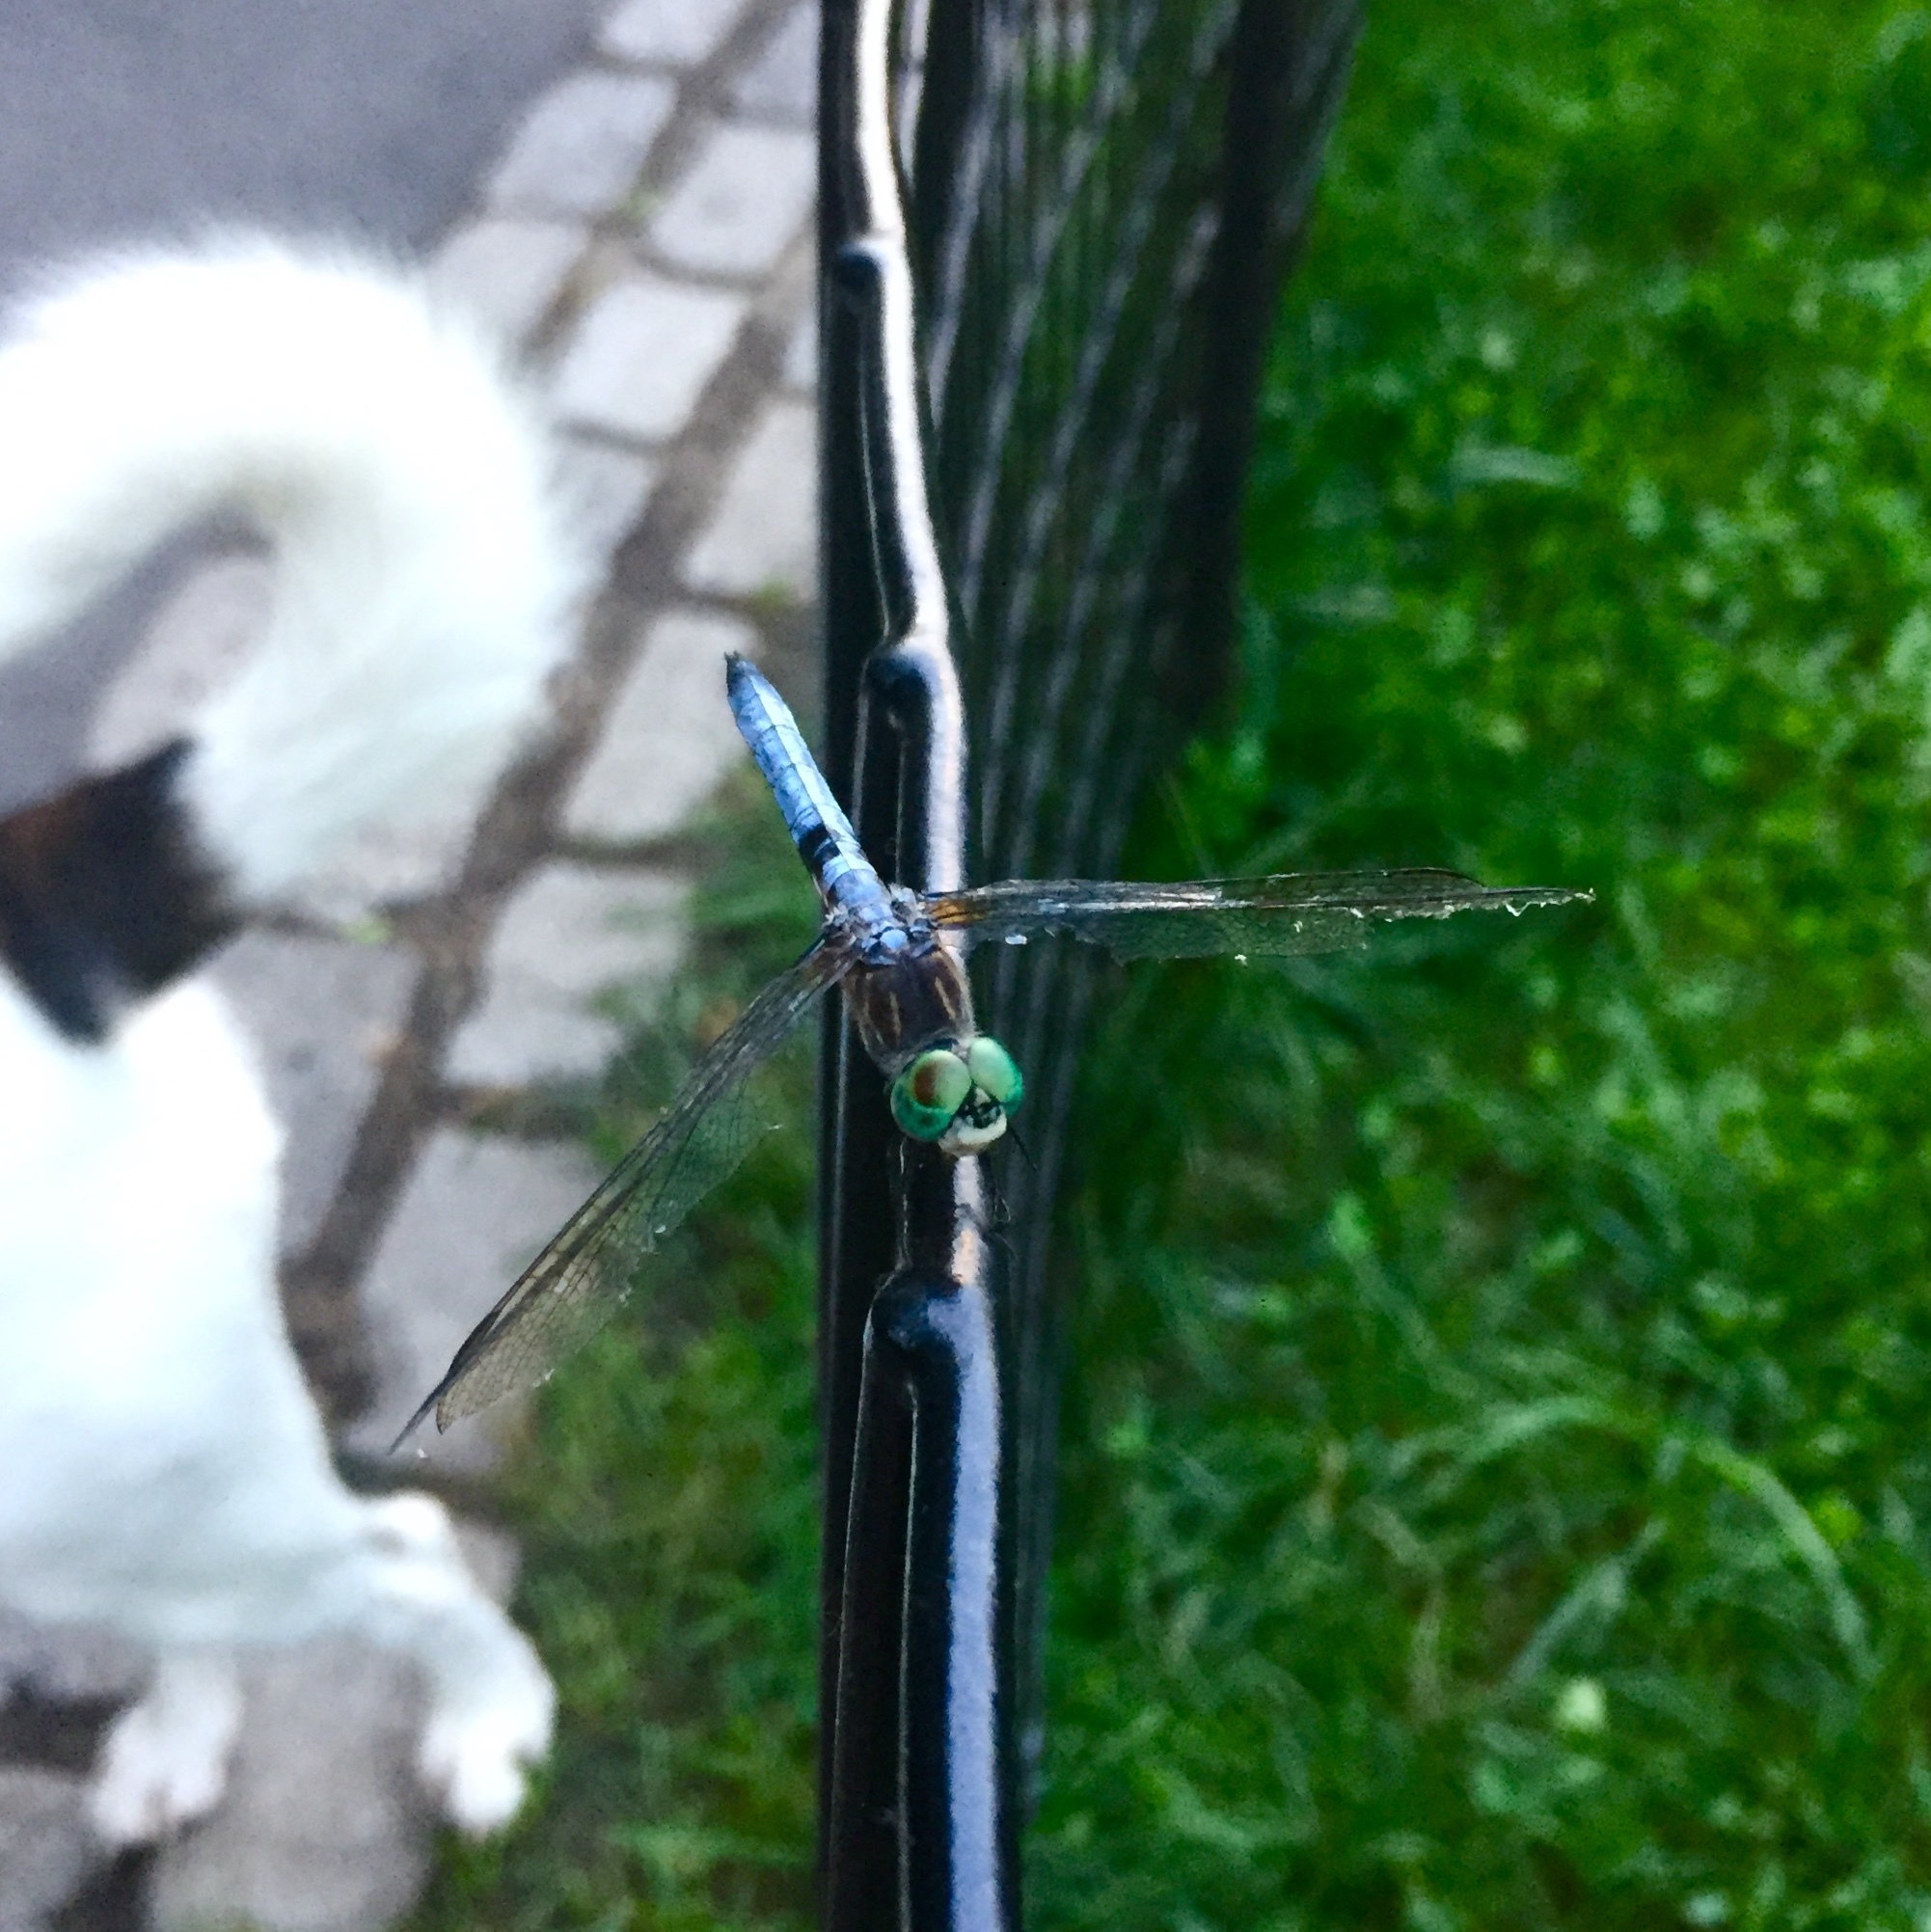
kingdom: Animalia
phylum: Arthropoda
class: Insecta
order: Odonata
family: Libellulidae
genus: Pachydiplax
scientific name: Pachydiplax longipennis
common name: Blue dasher
